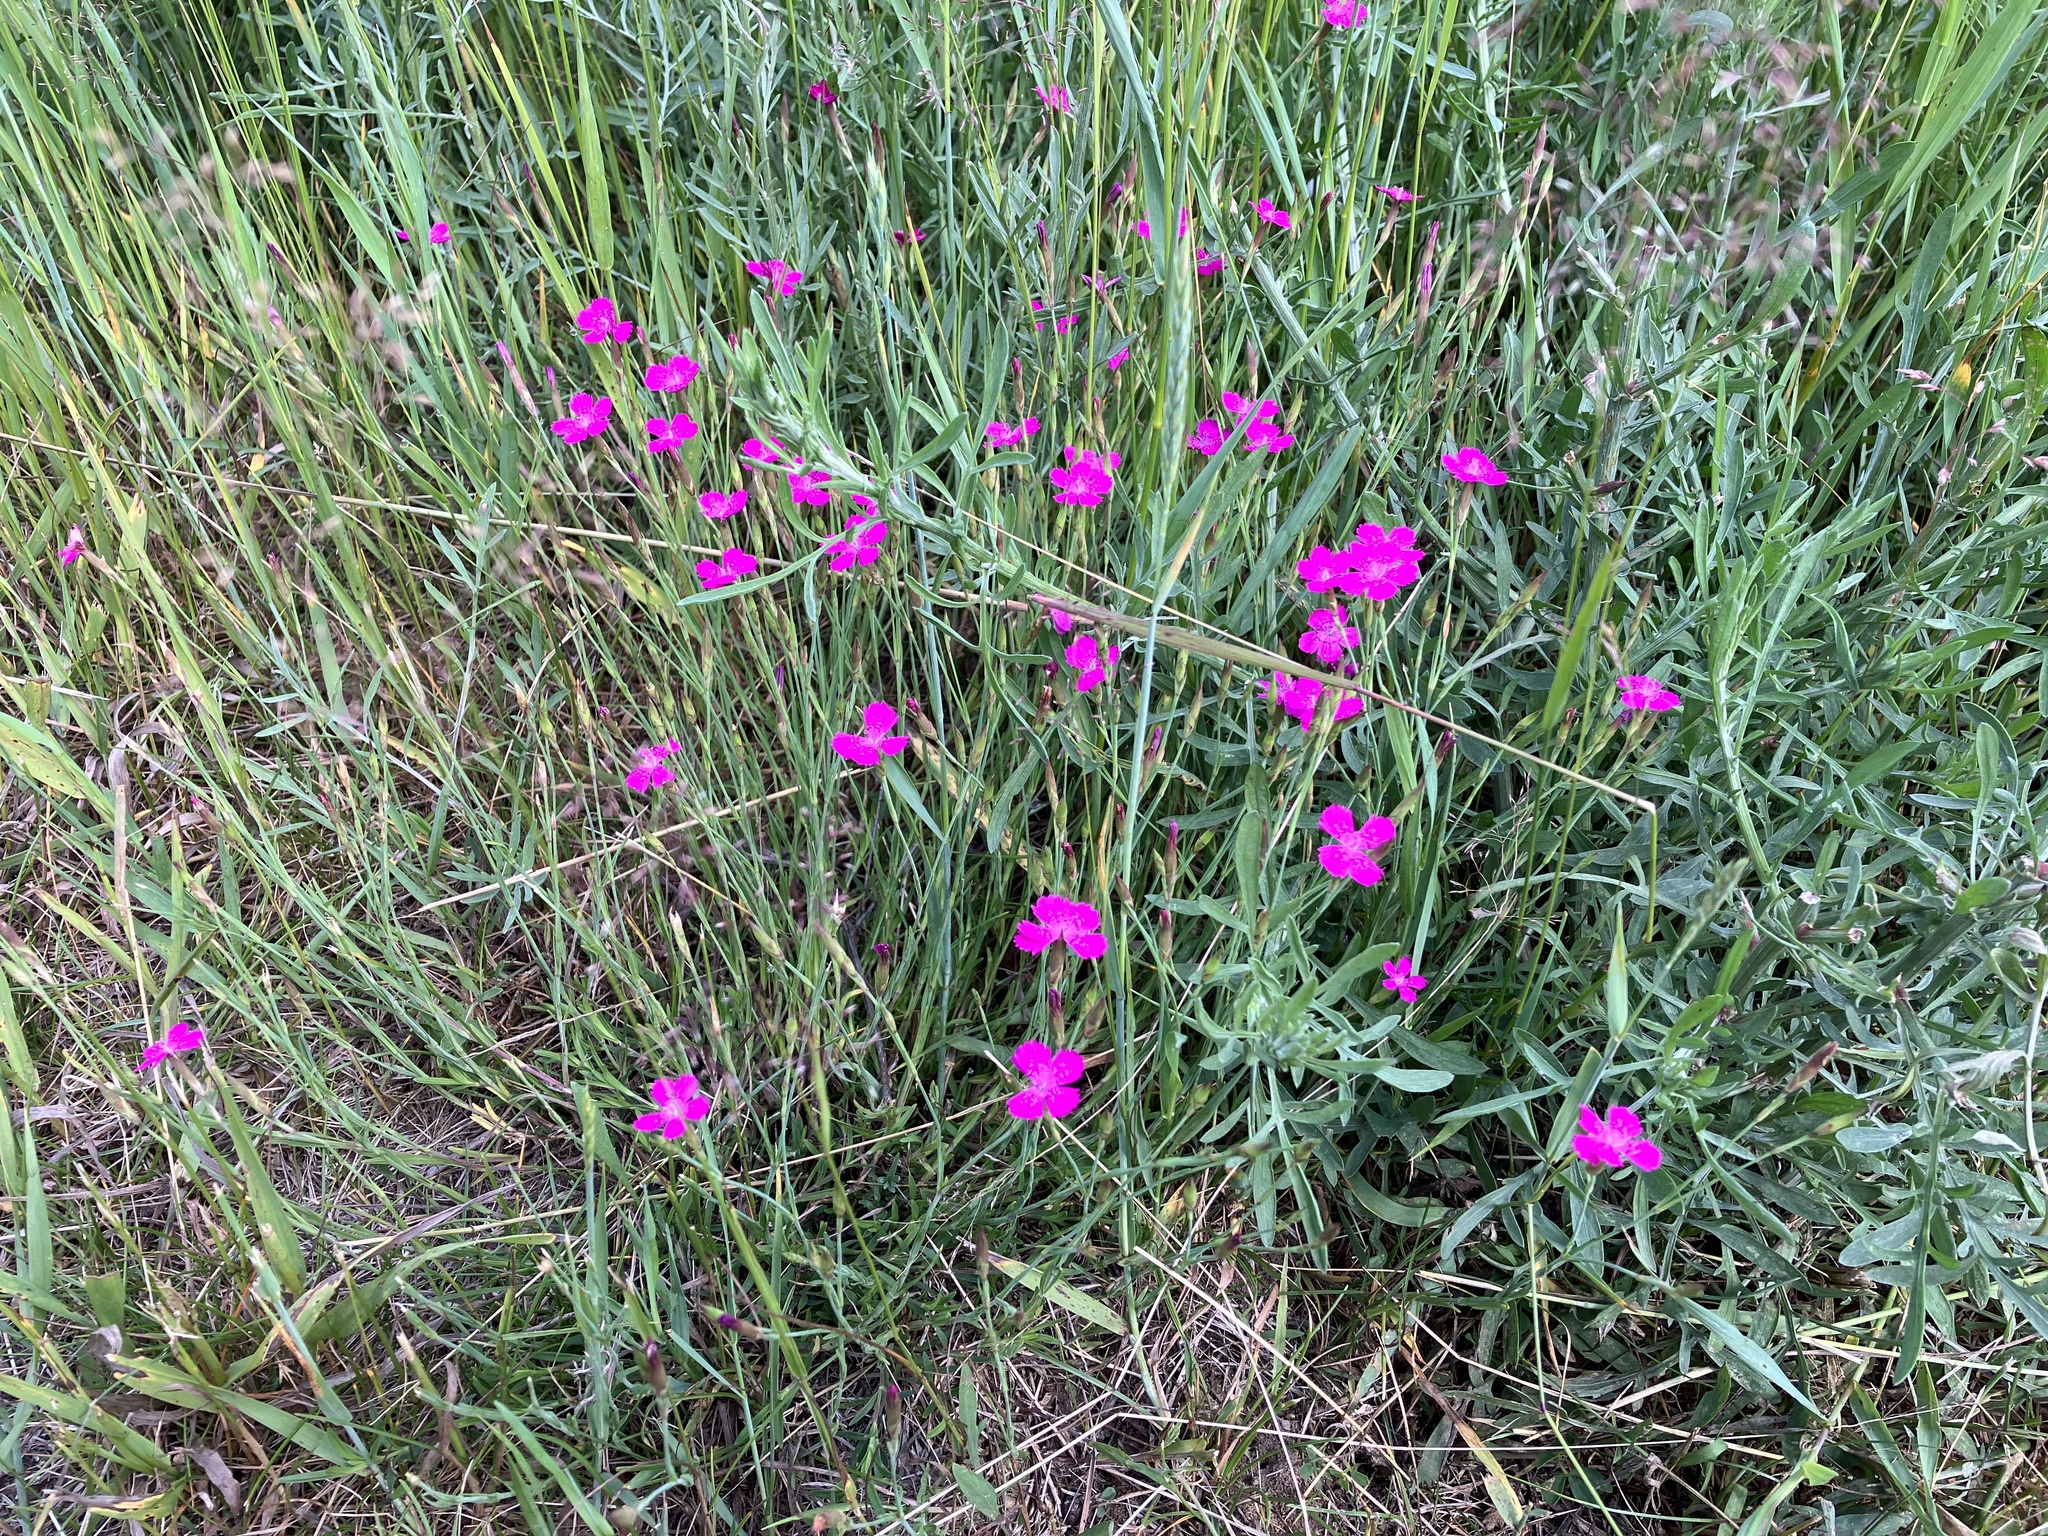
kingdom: Plantae
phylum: Tracheophyta
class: Magnoliopsida
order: Caryophyllales
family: Caryophyllaceae
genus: Dianthus
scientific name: Dianthus deltoides
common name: Maiden pink
